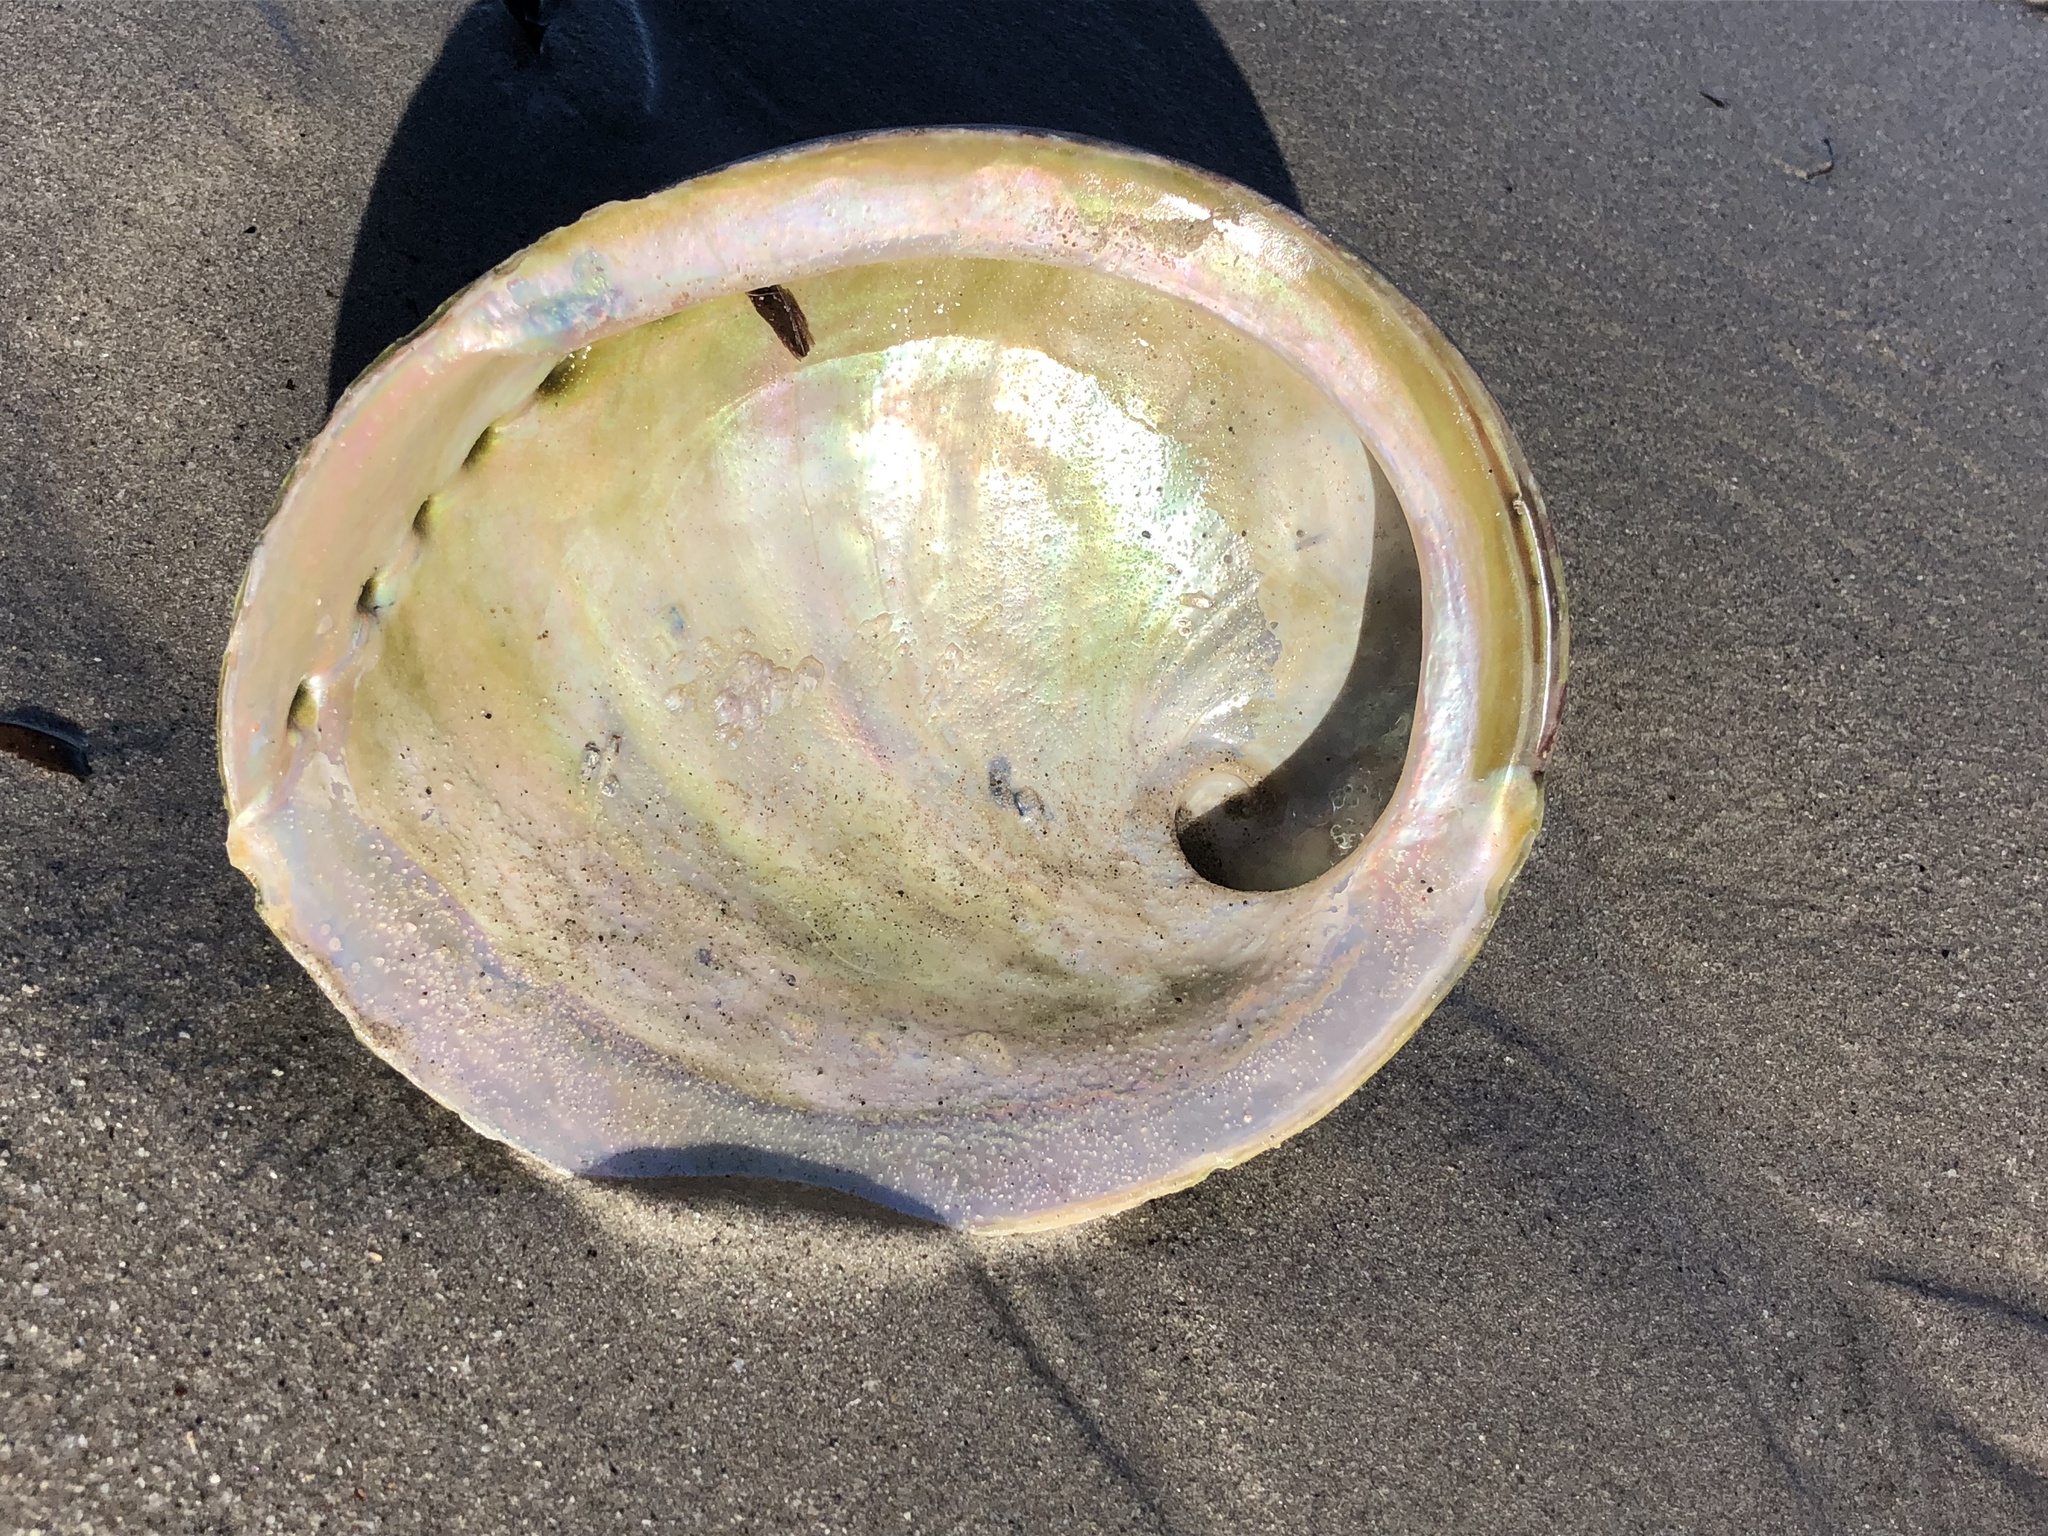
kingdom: Animalia
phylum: Mollusca
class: Gastropoda
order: Lepetellida
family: Haliotidae
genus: Haliotis
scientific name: Haliotis laevigata
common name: Greenlip abalone
